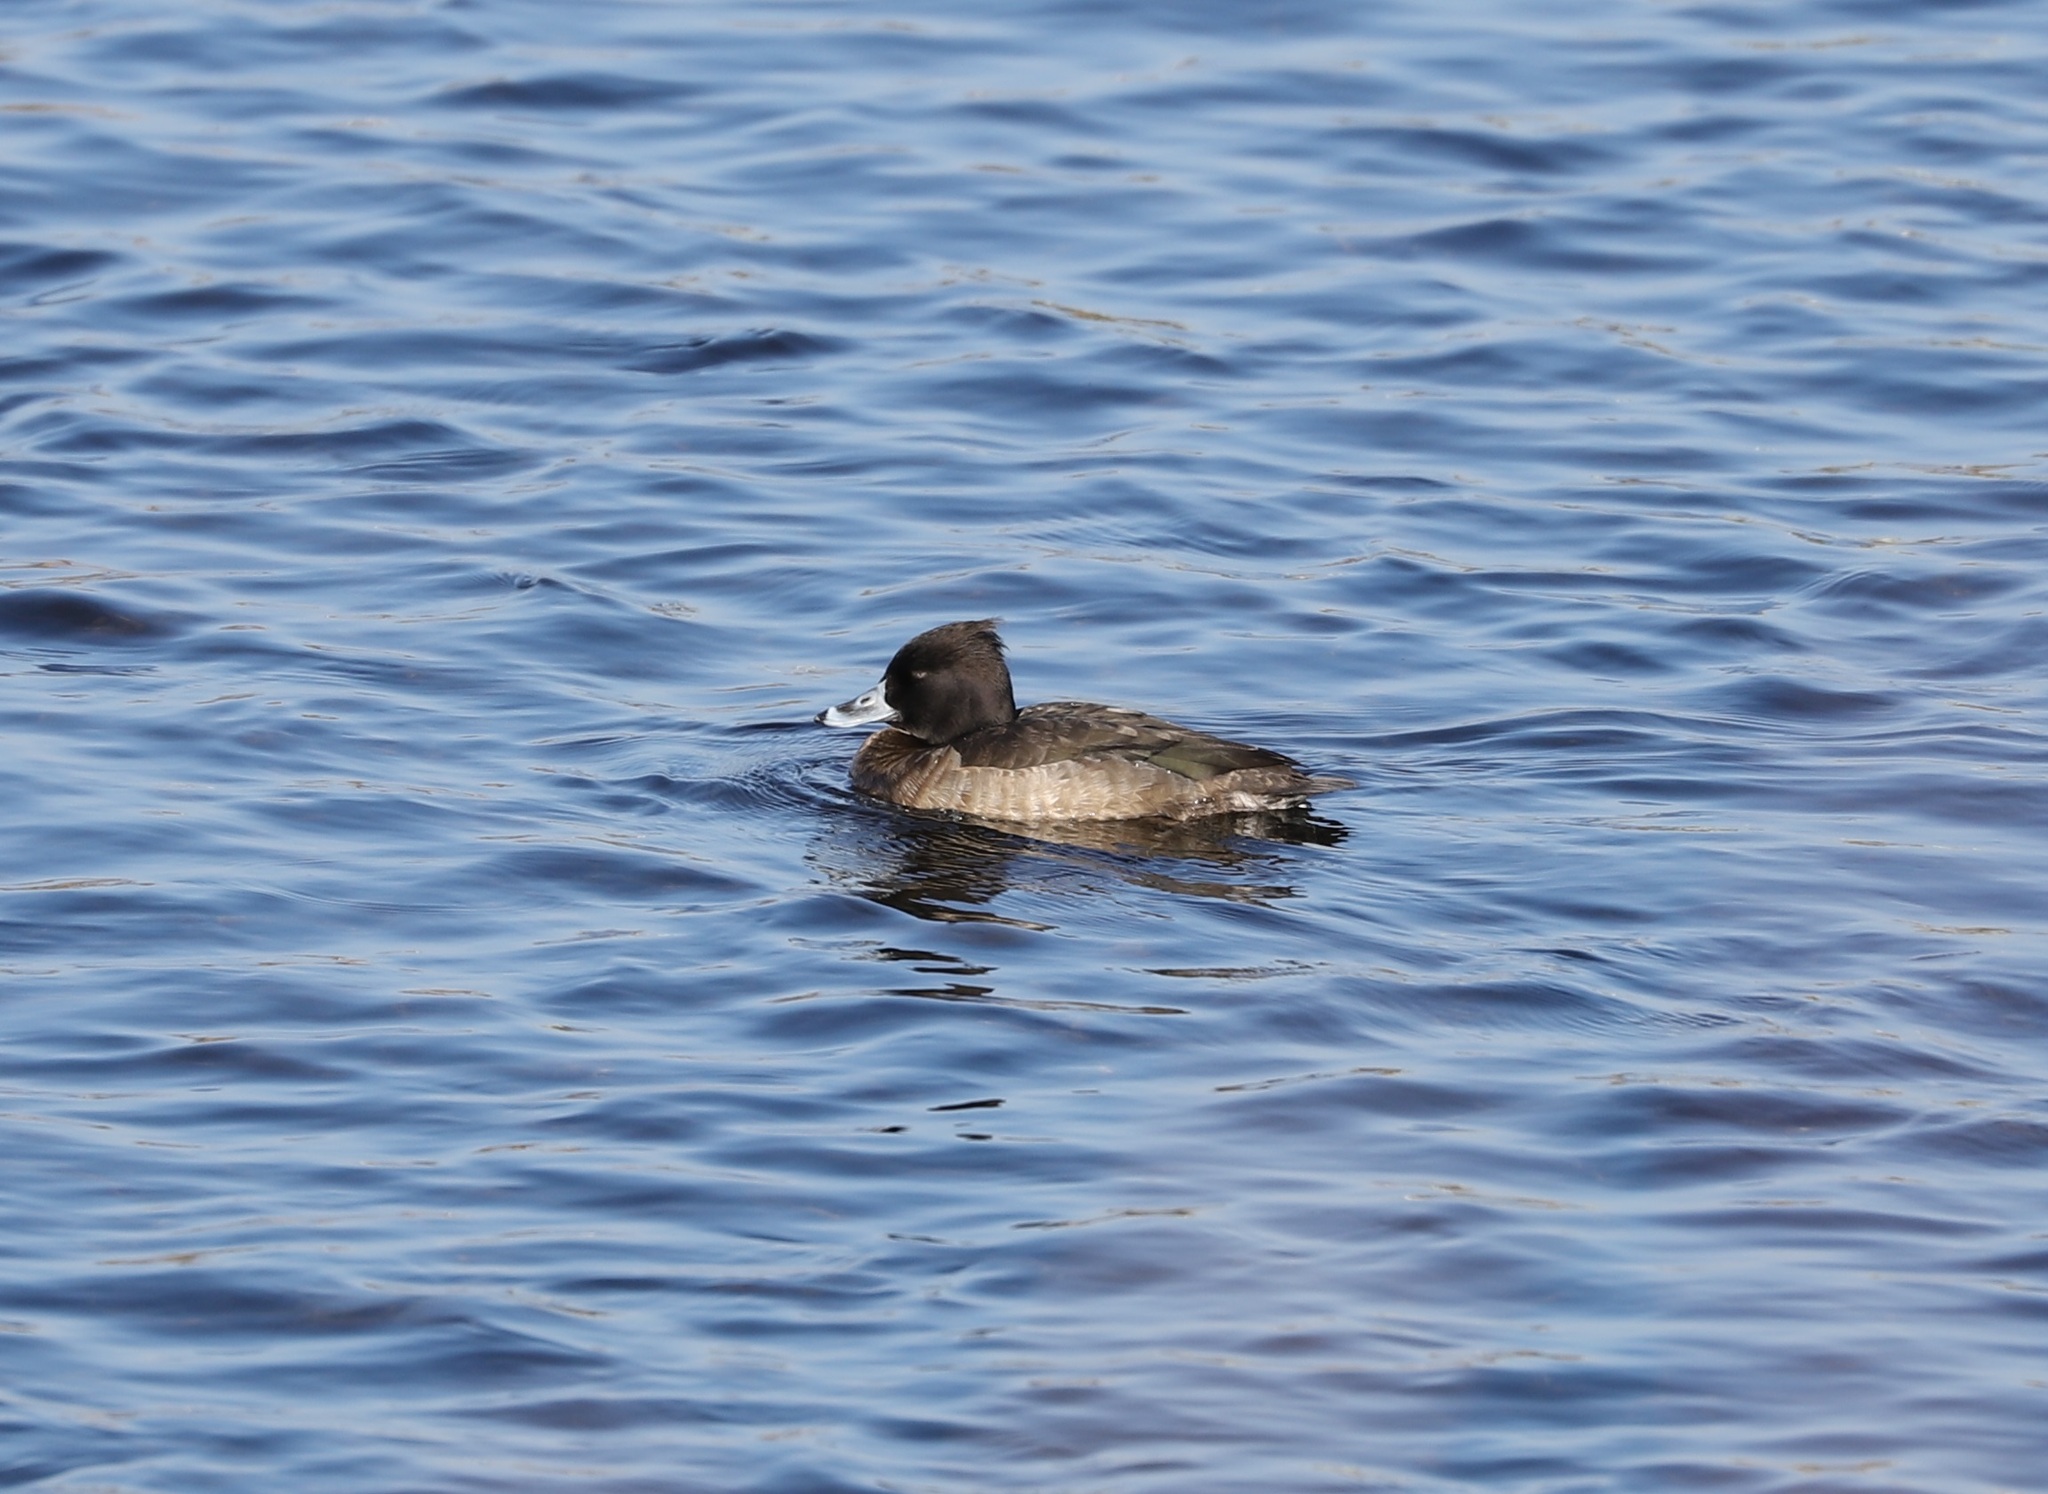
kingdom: Animalia
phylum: Chordata
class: Aves
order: Anseriformes
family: Anatidae
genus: Aythya
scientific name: Aythya fuligula
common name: Tufted duck
